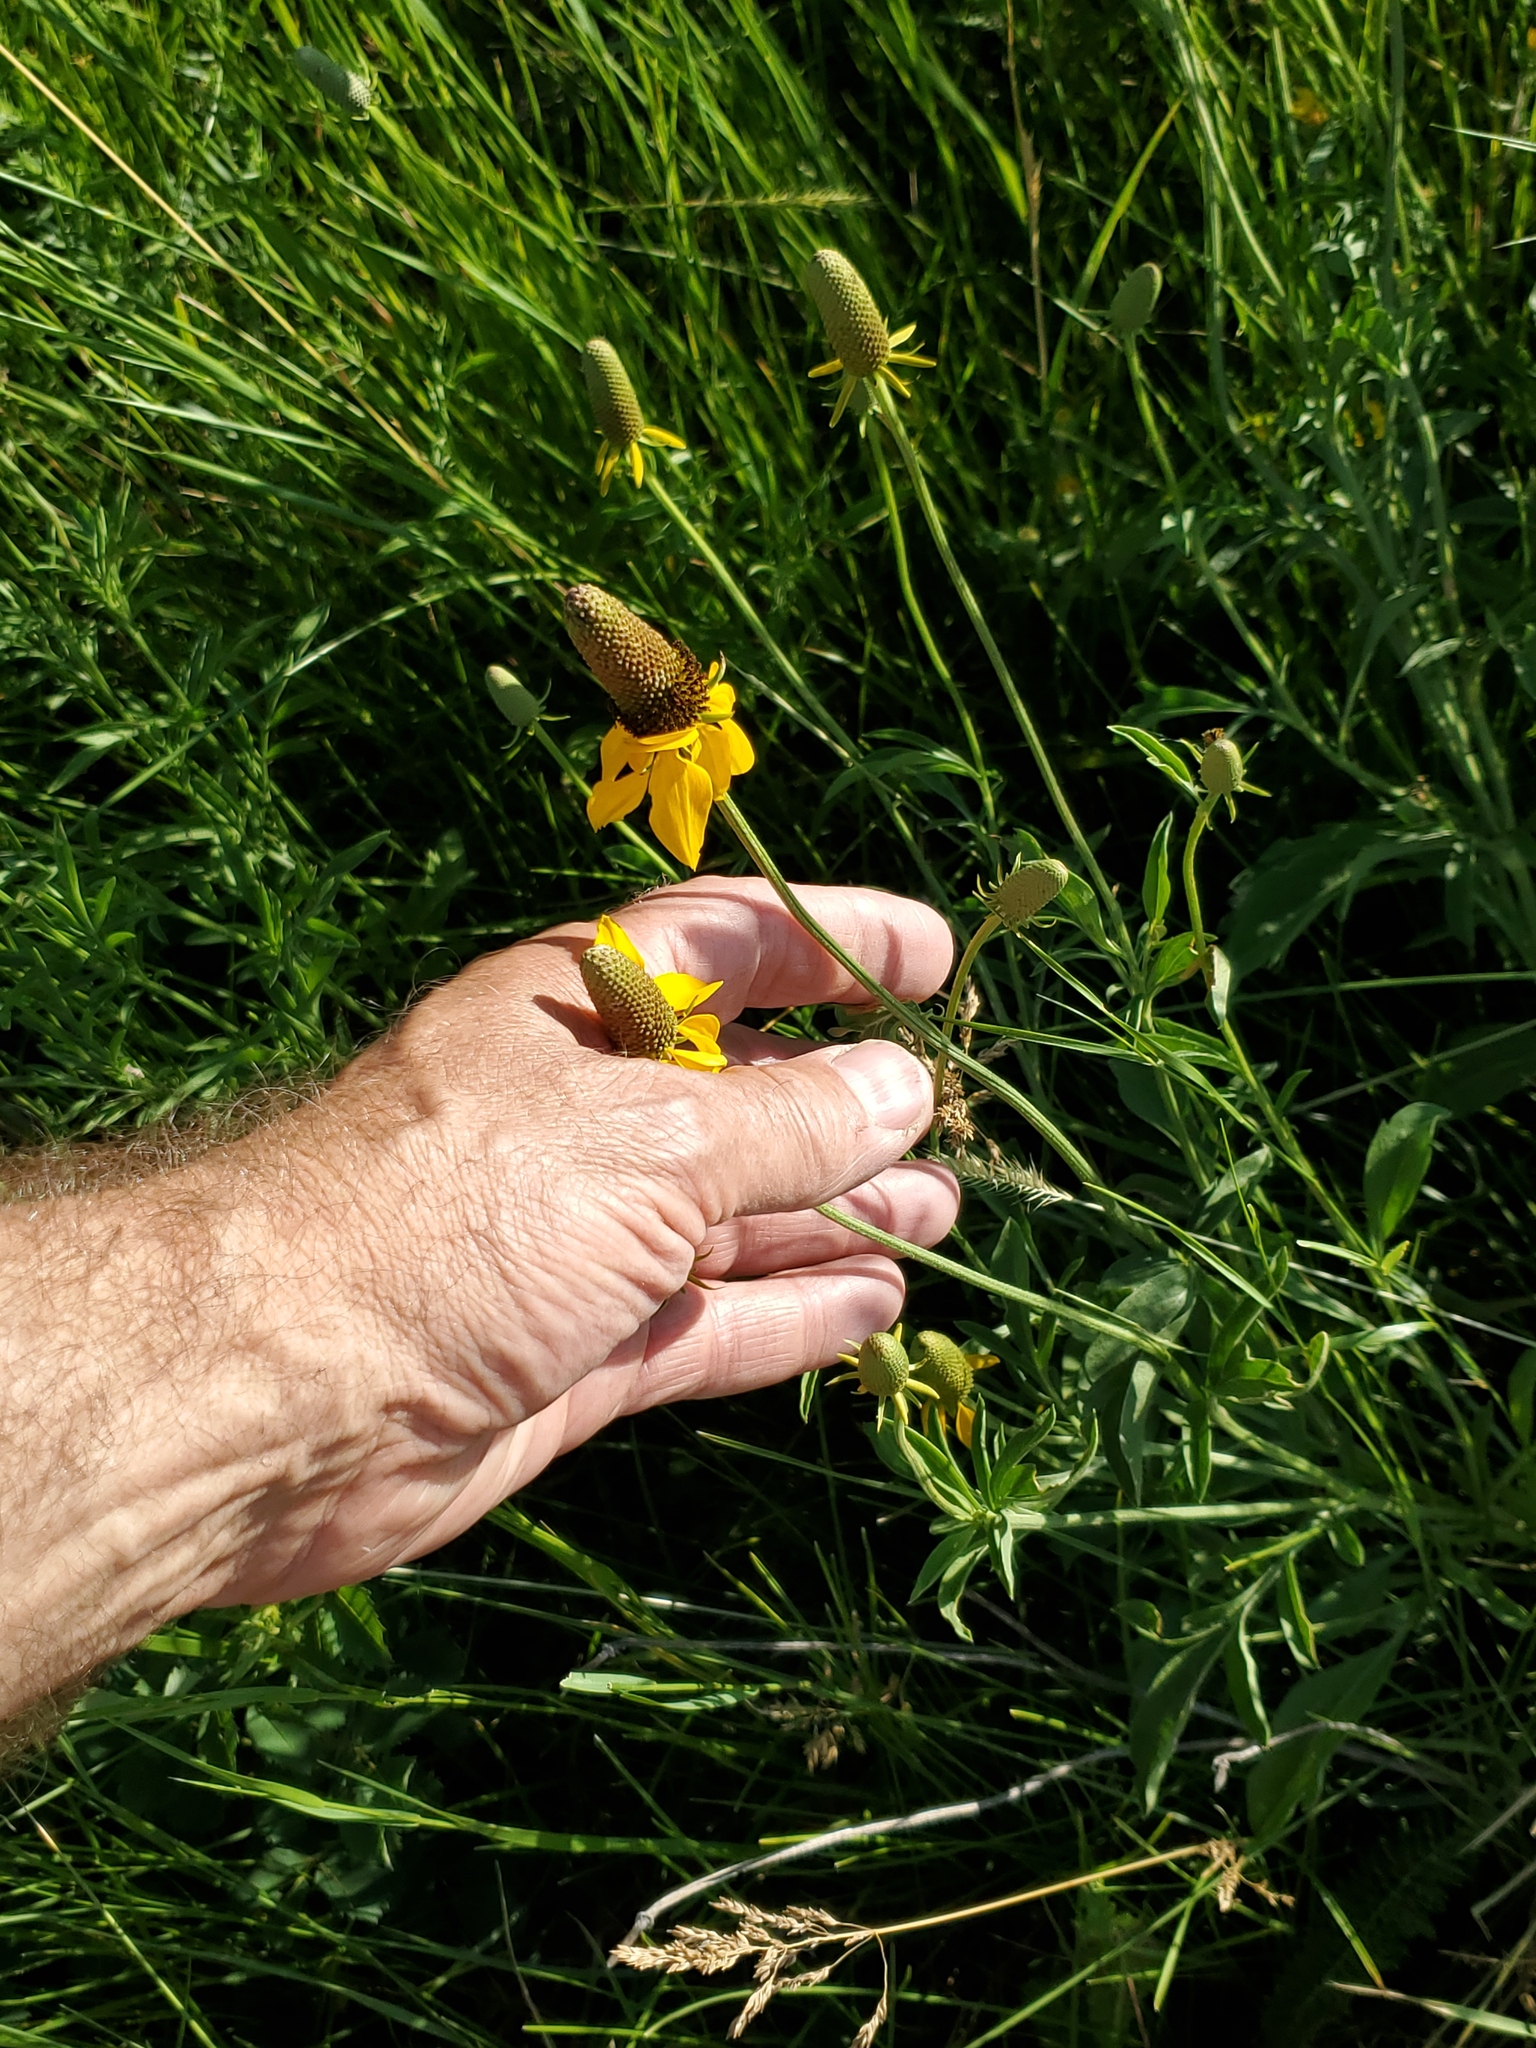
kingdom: Plantae
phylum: Tracheophyta
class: Magnoliopsida
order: Asterales
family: Asteraceae
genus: Ratibida
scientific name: Ratibida columnifera
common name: Prairie coneflower
